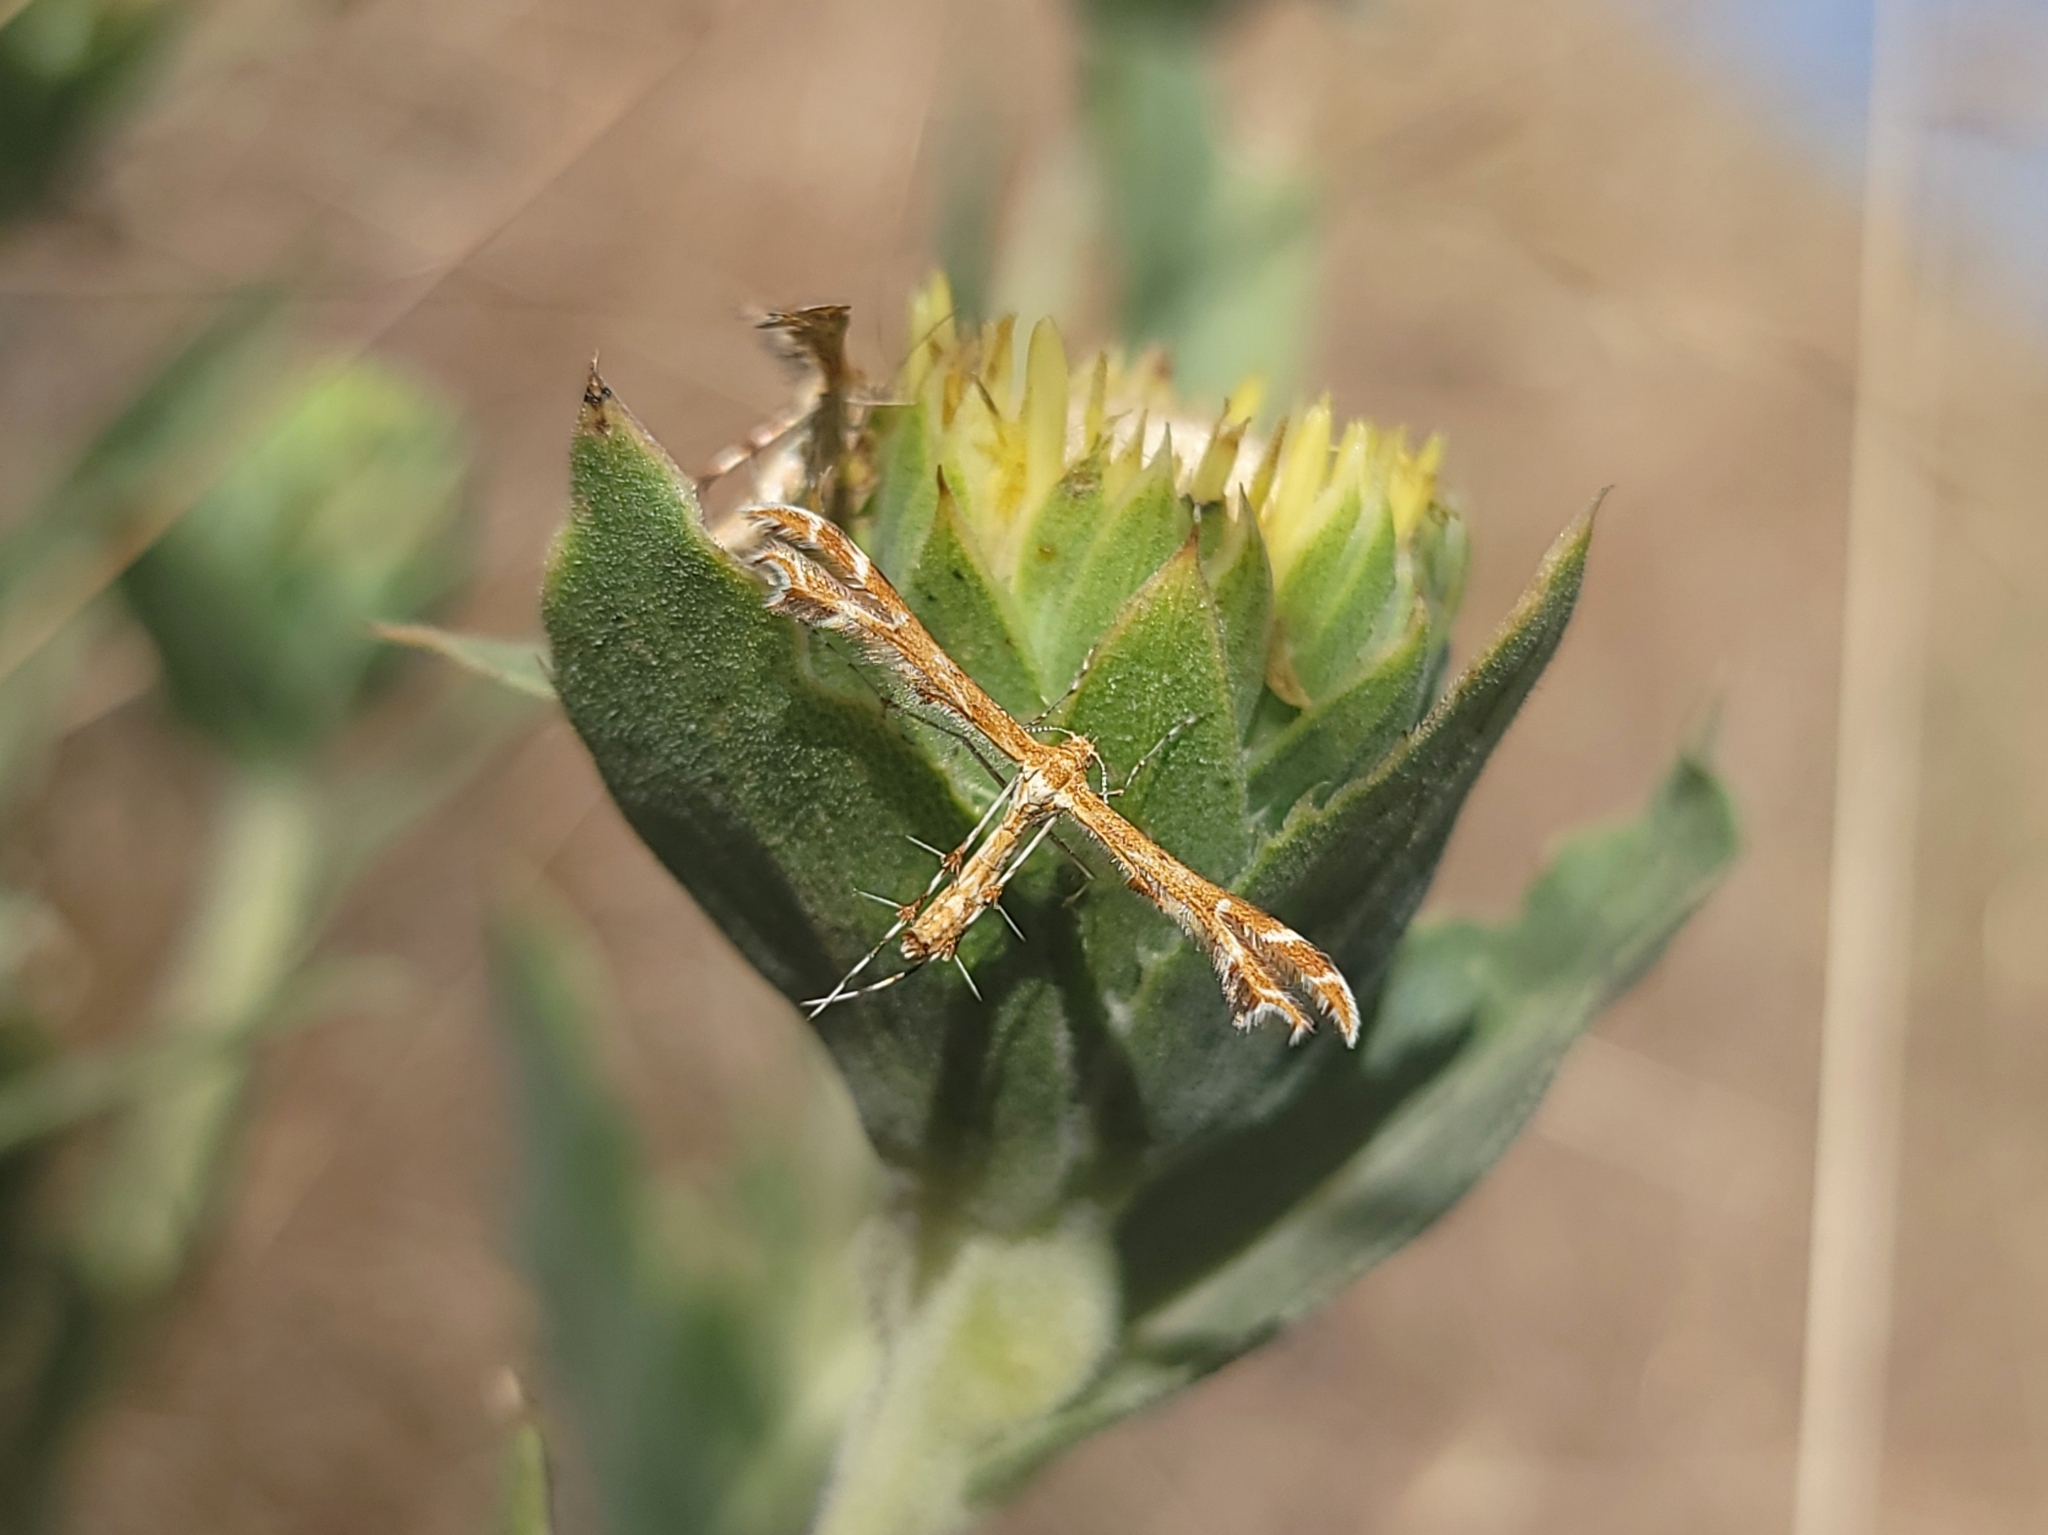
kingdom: Animalia
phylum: Arthropoda
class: Insecta
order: Lepidoptera
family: Pterophoridae
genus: Oxyptilus
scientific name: Oxyptilus delawaricus
